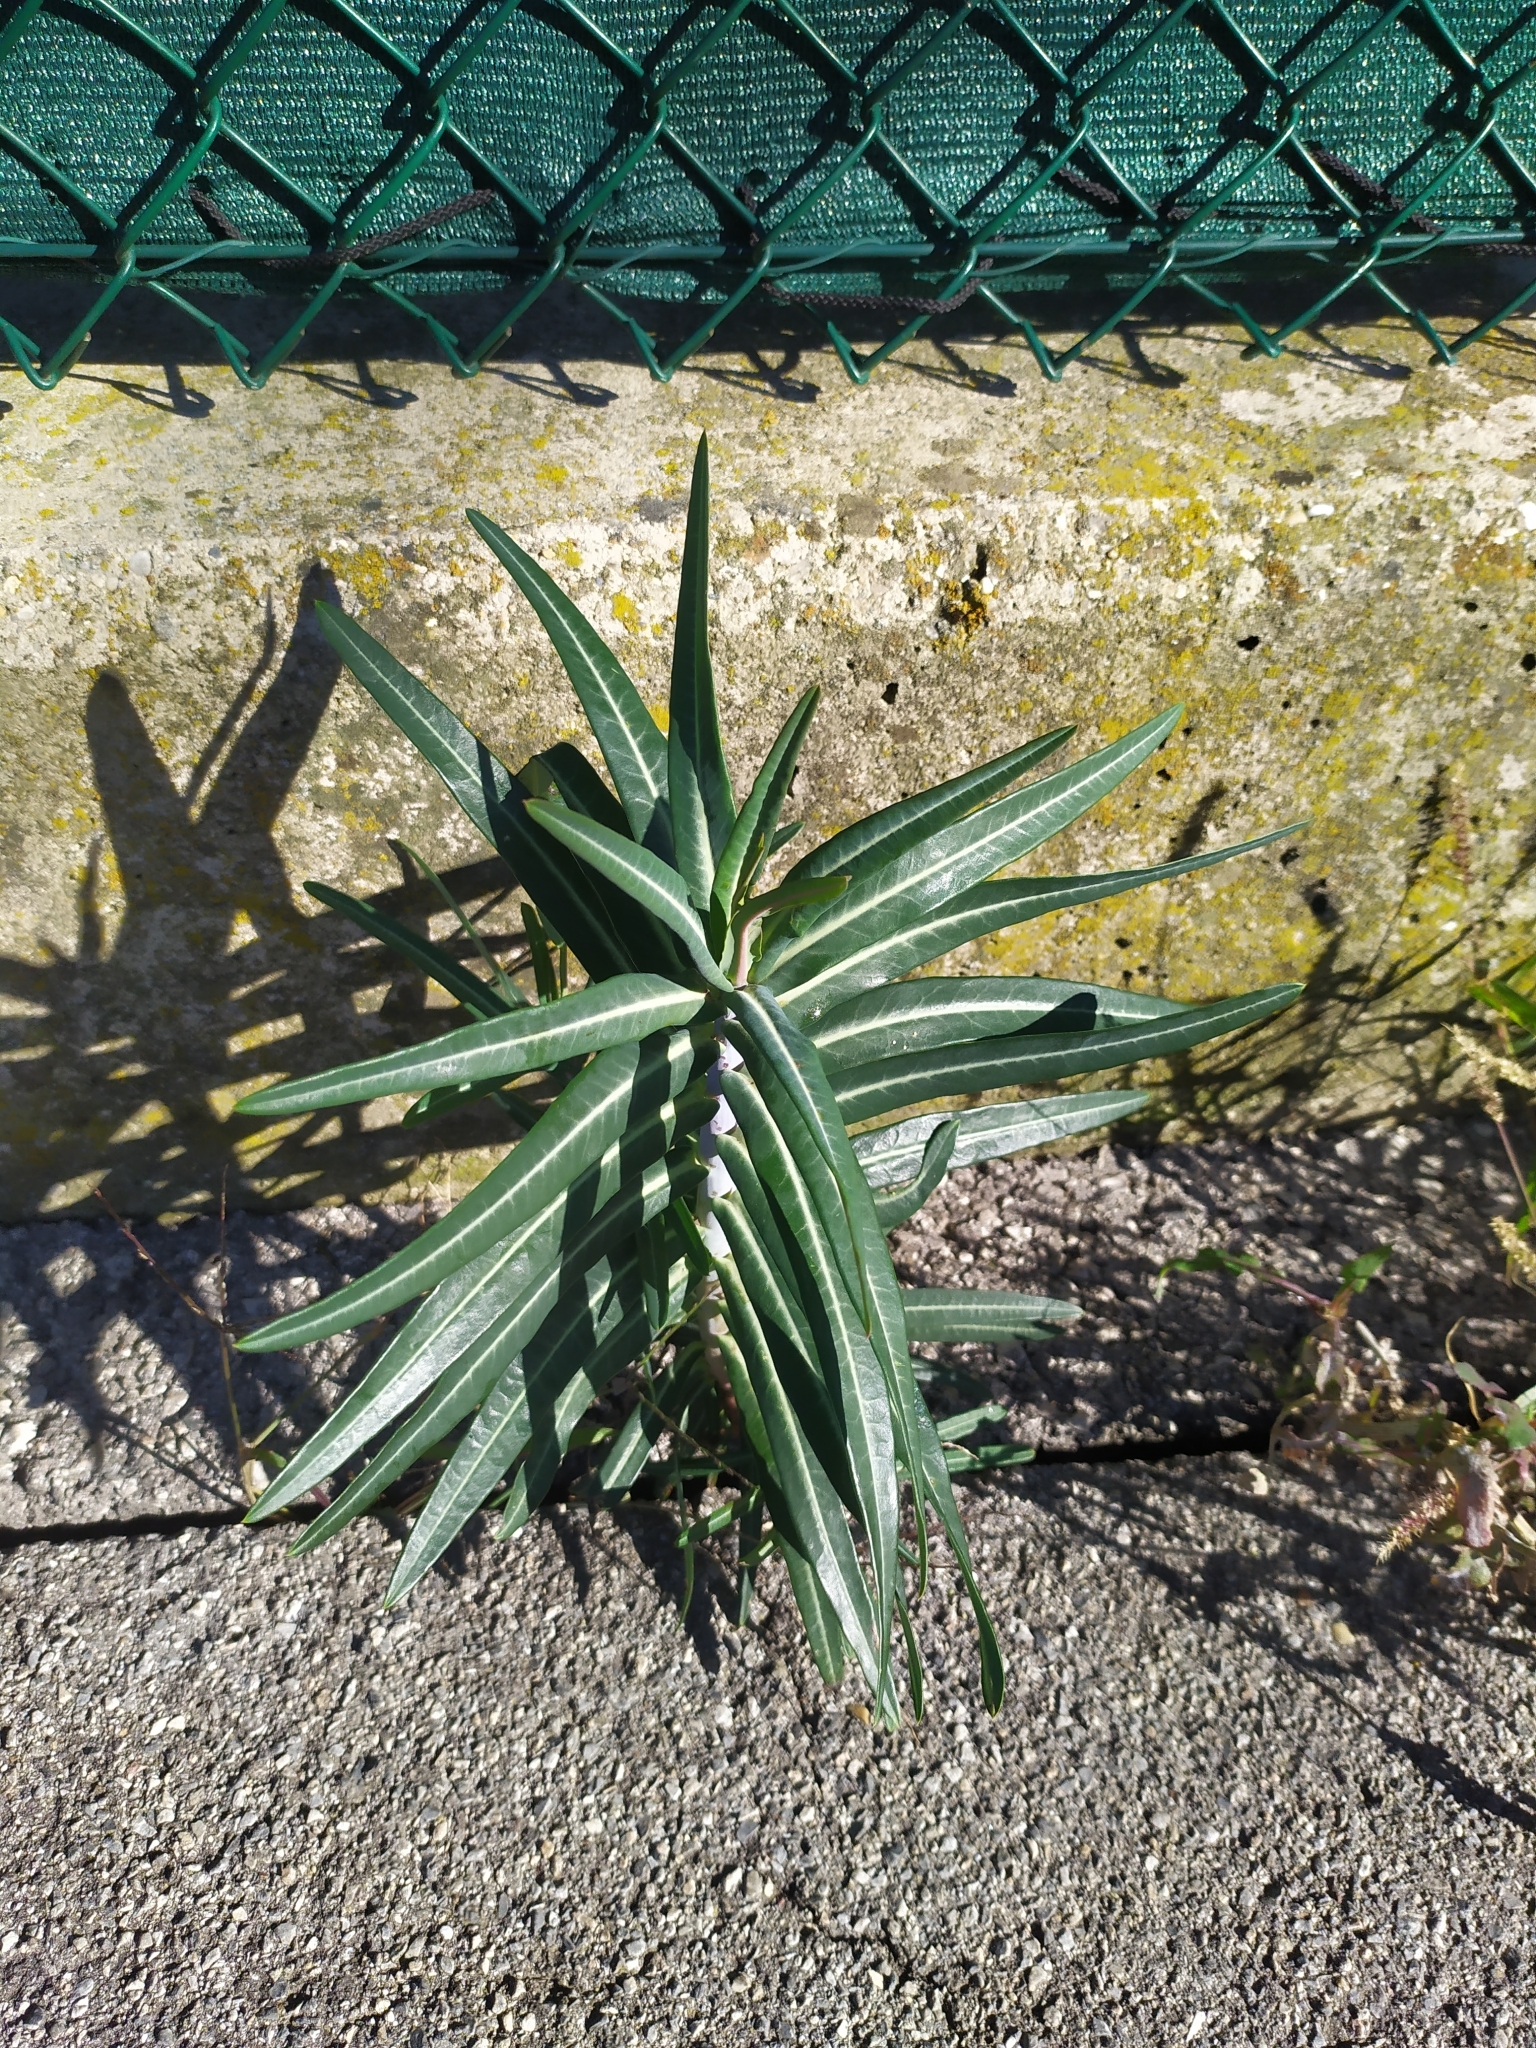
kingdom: Plantae
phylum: Tracheophyta
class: Magnoliopsida
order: Malpighiales
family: Euphorbiaceae
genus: Euphorbia
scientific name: Euphorbia lathyris
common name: Caper spurge
